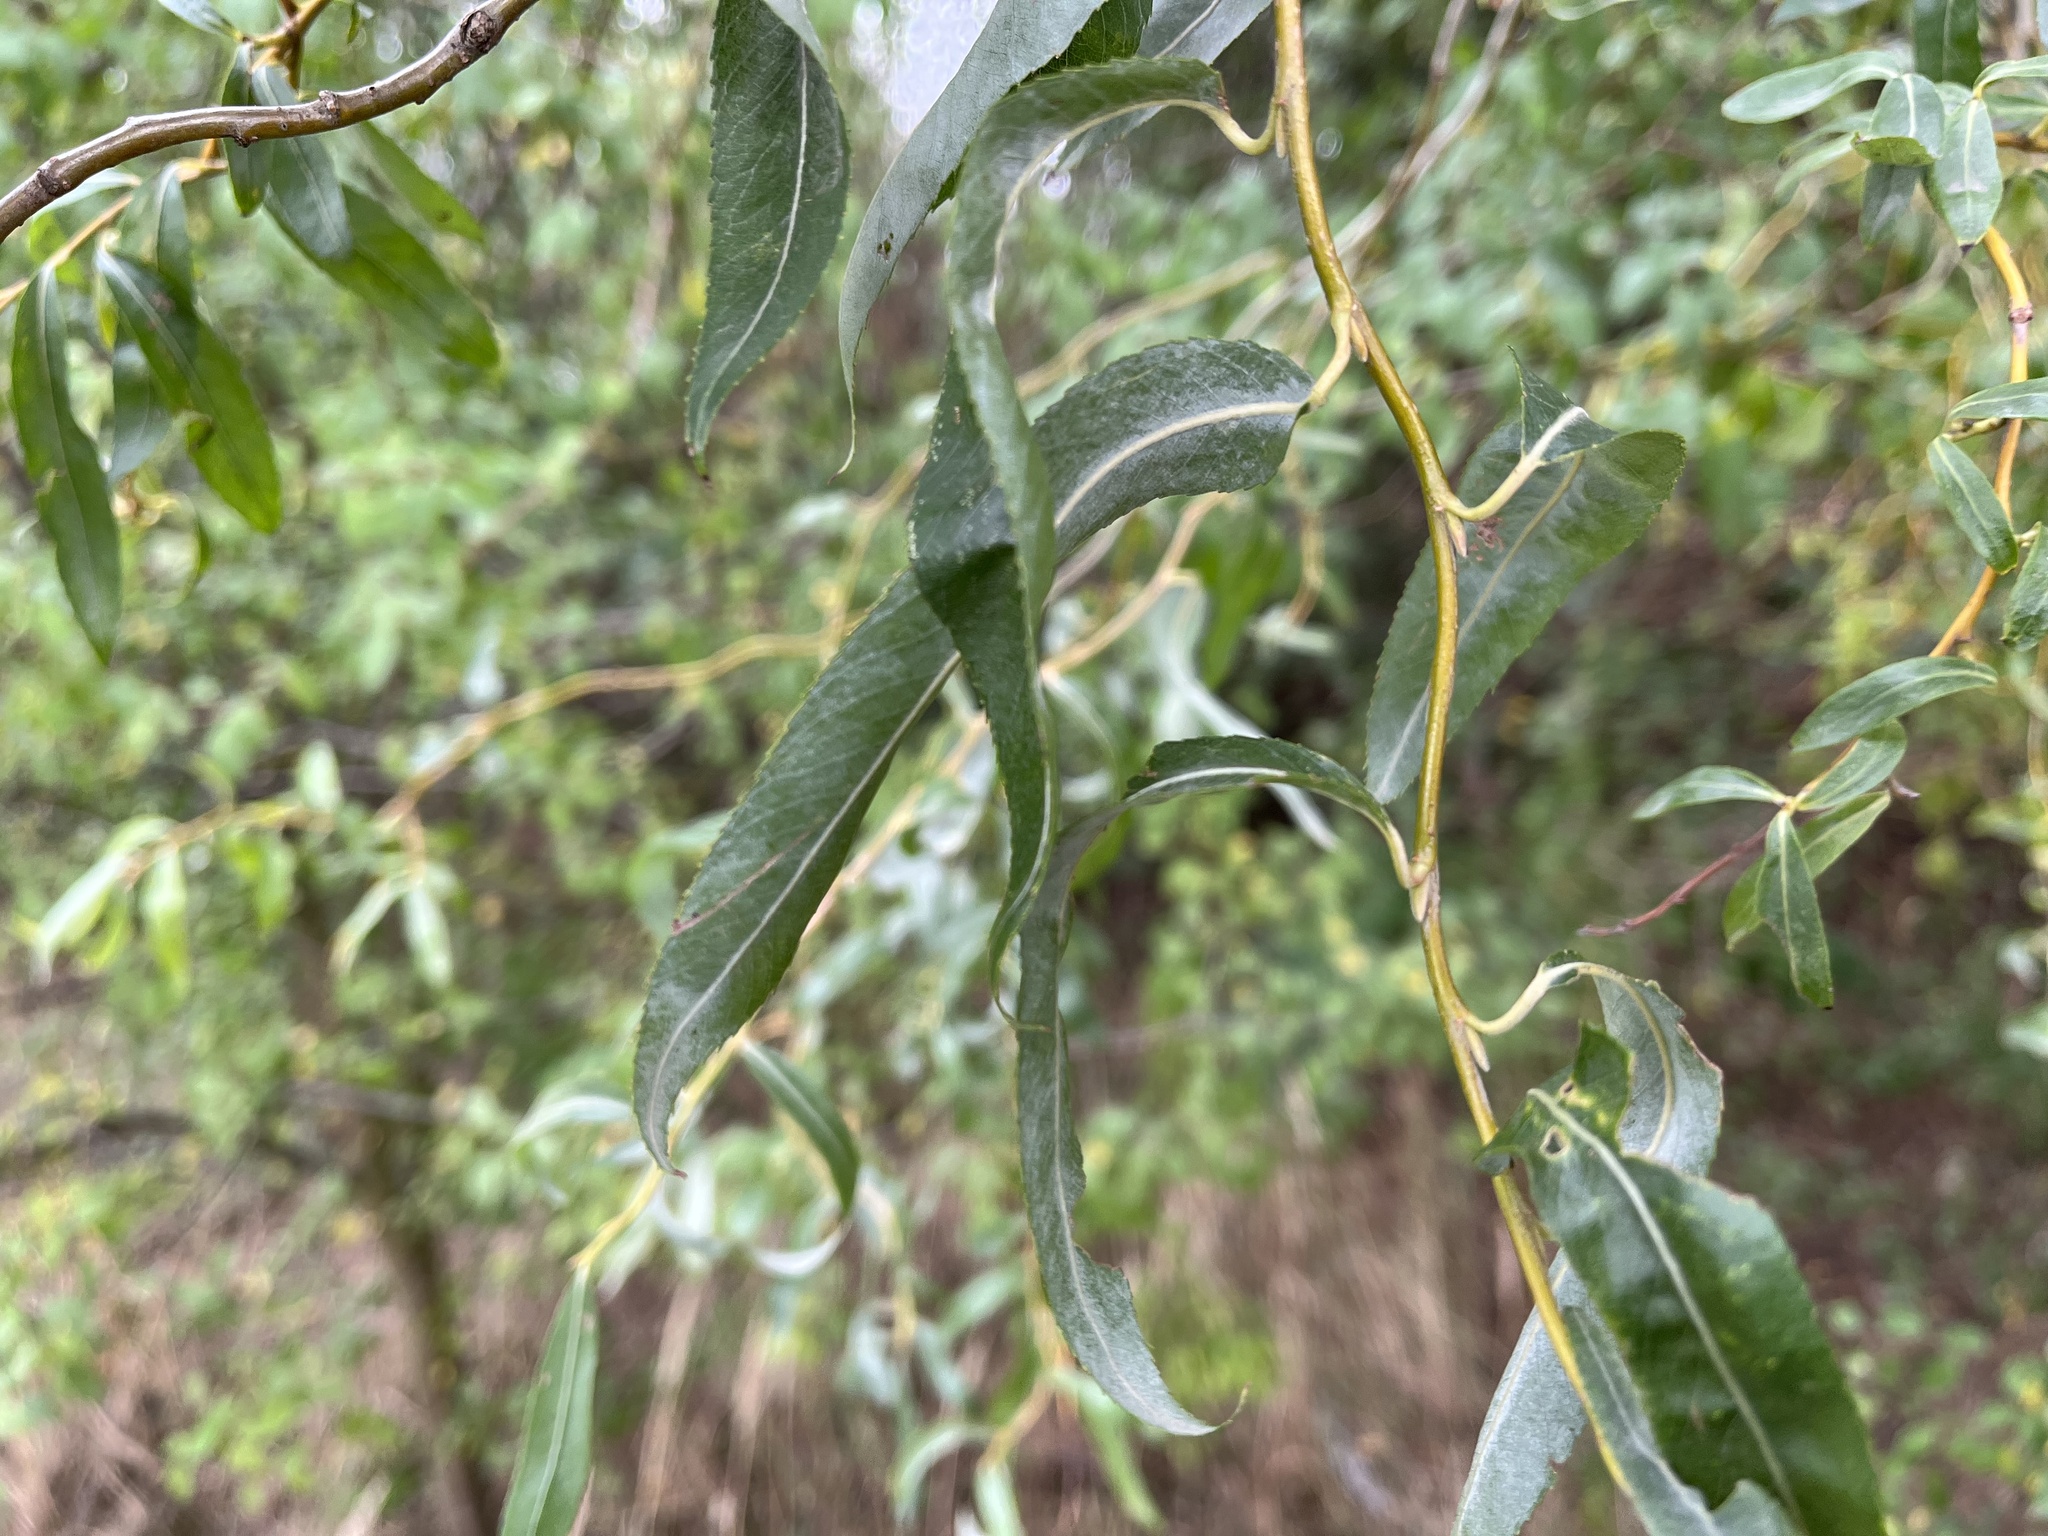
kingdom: Plantae
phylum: Tracheophyta
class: Magnoliopsida
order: Malpighiales
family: Salicaceae
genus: Salix
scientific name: Salix
